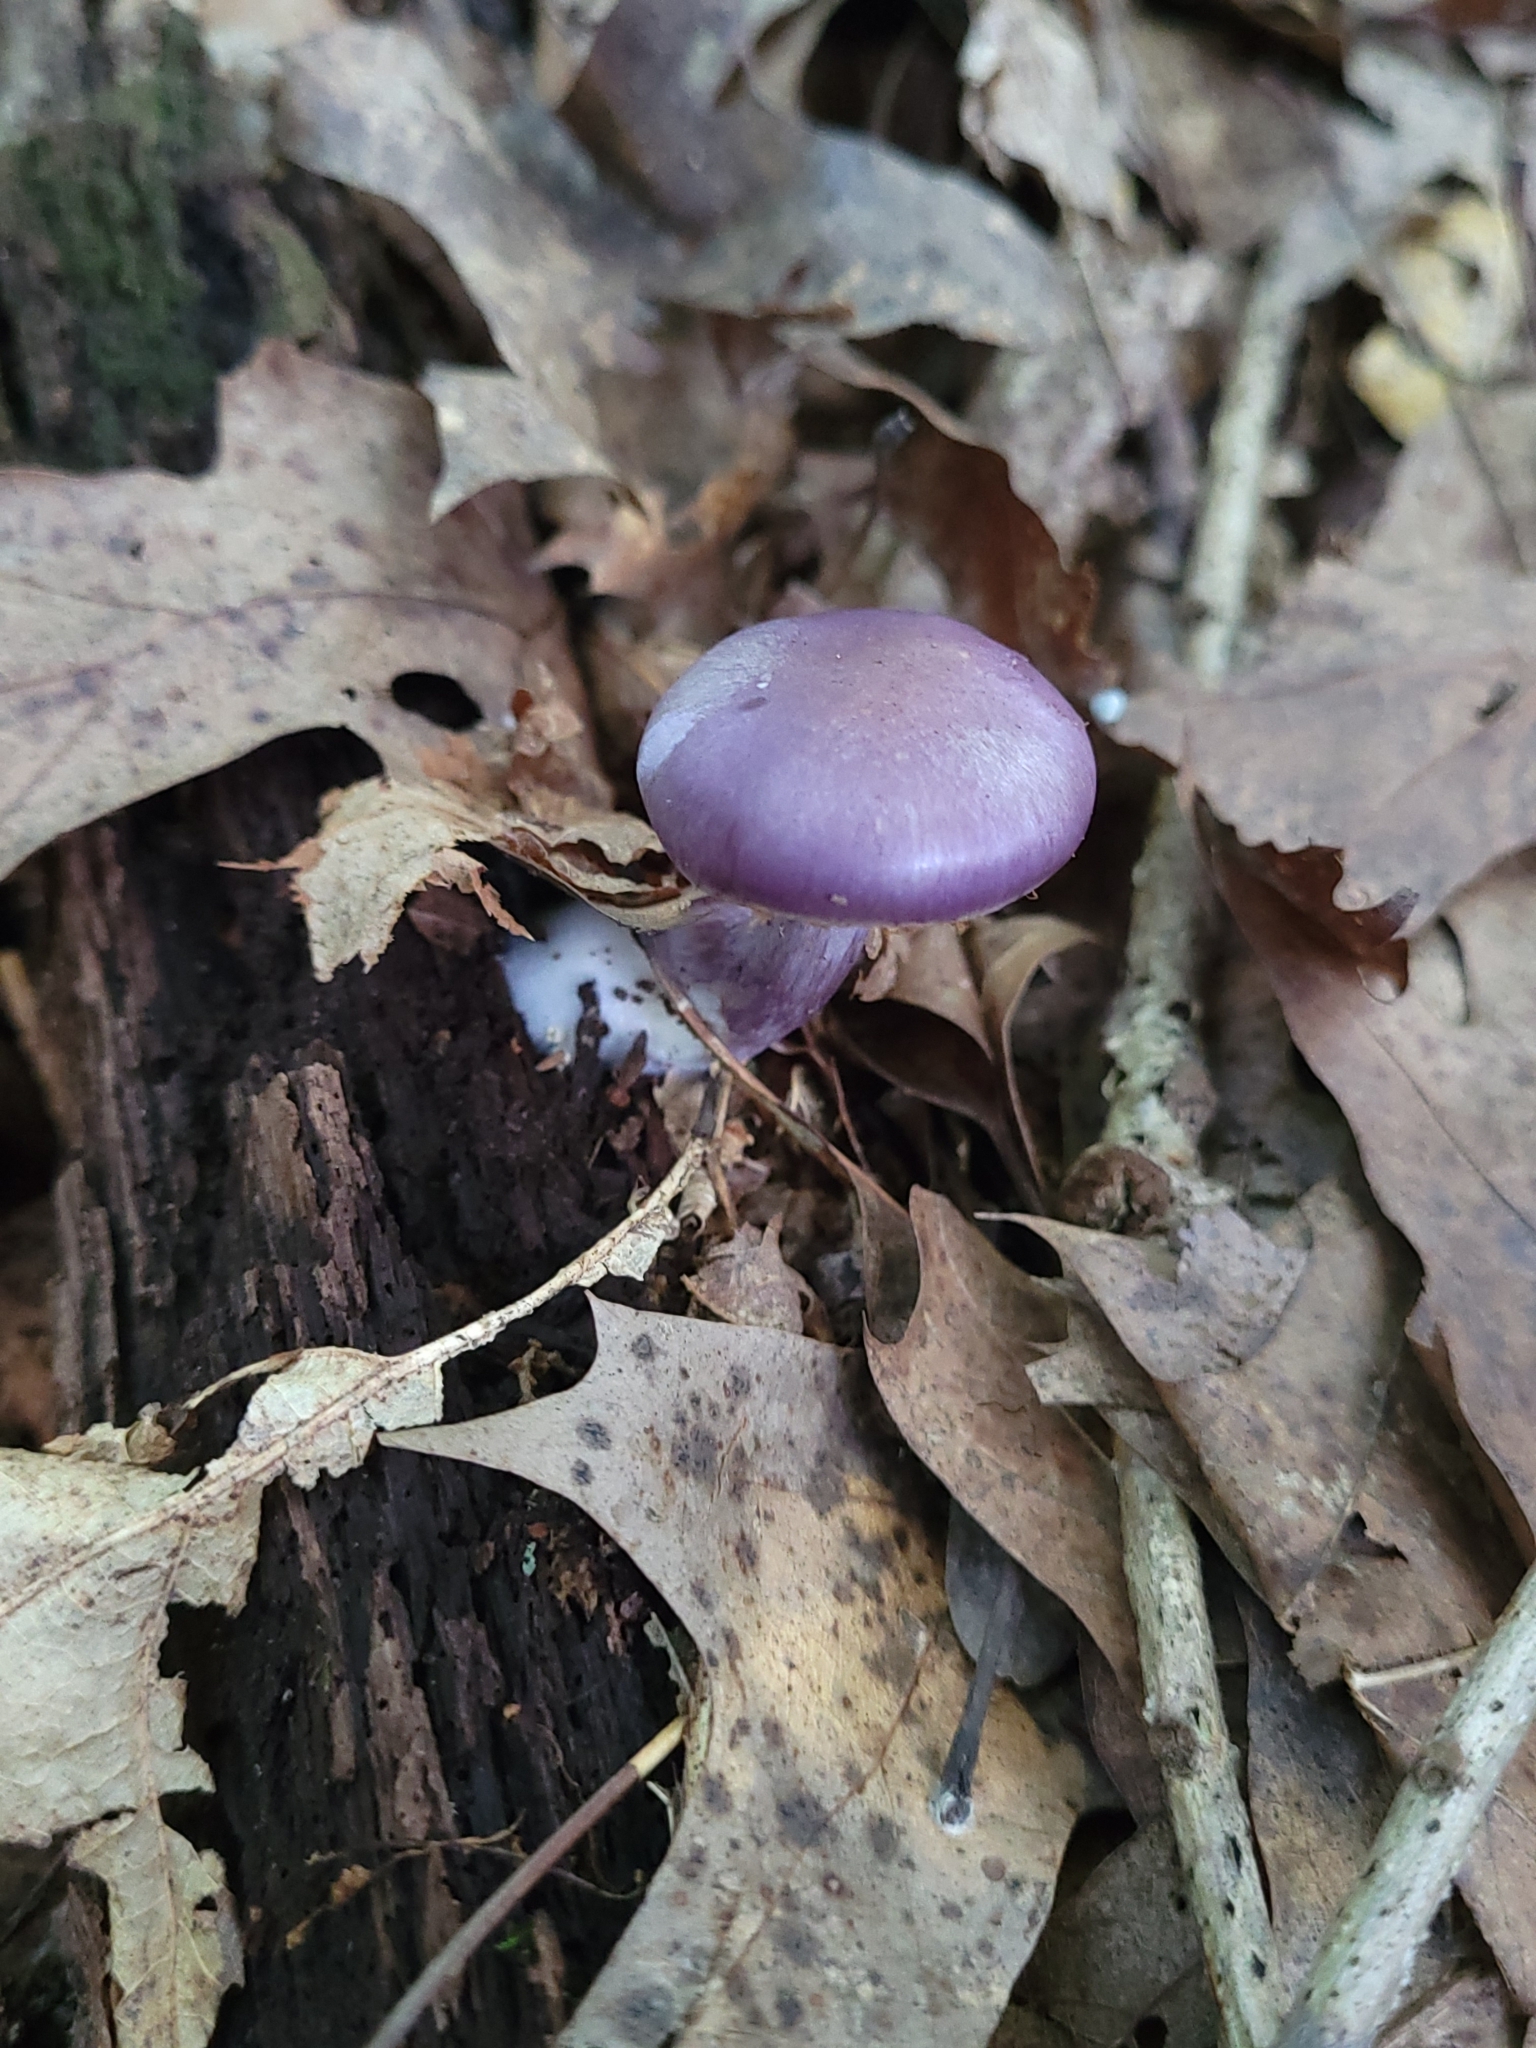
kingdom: Fungi
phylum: Basidiomycota
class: Agaricomycetes
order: Agaricales
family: Cortinariaceae
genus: Cortinarius
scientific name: Cortinarius iodes
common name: Viscid violet cort
